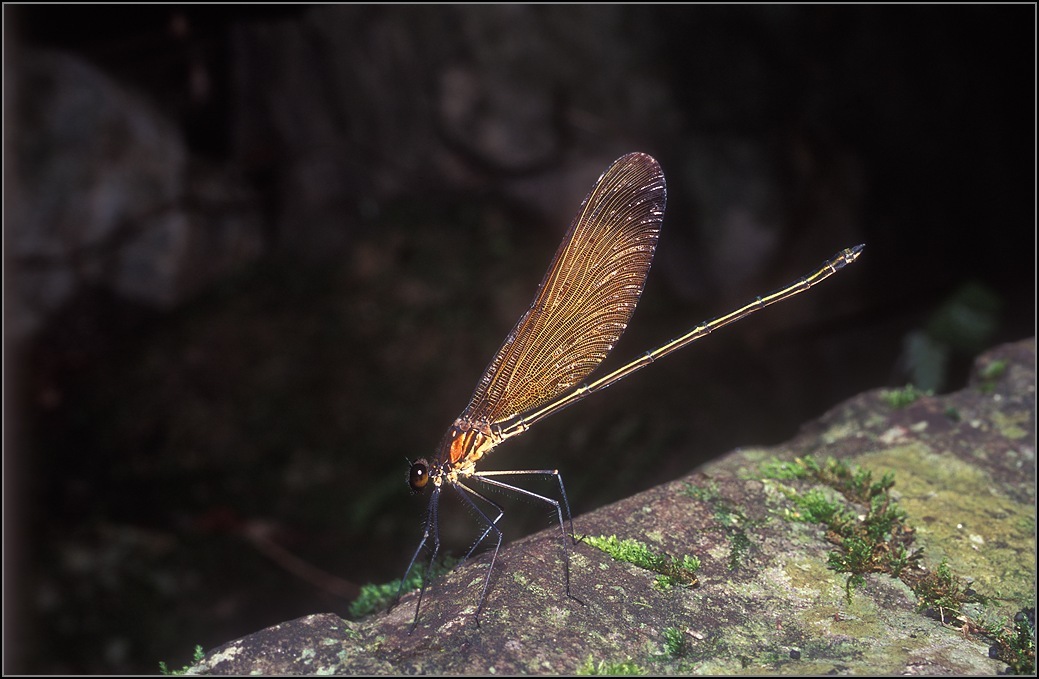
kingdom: Animalia
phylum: Arthropoda
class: Insecta
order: Odonata
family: Calopterygidae
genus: Calopteryx
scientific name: Calopteryx cornelia
